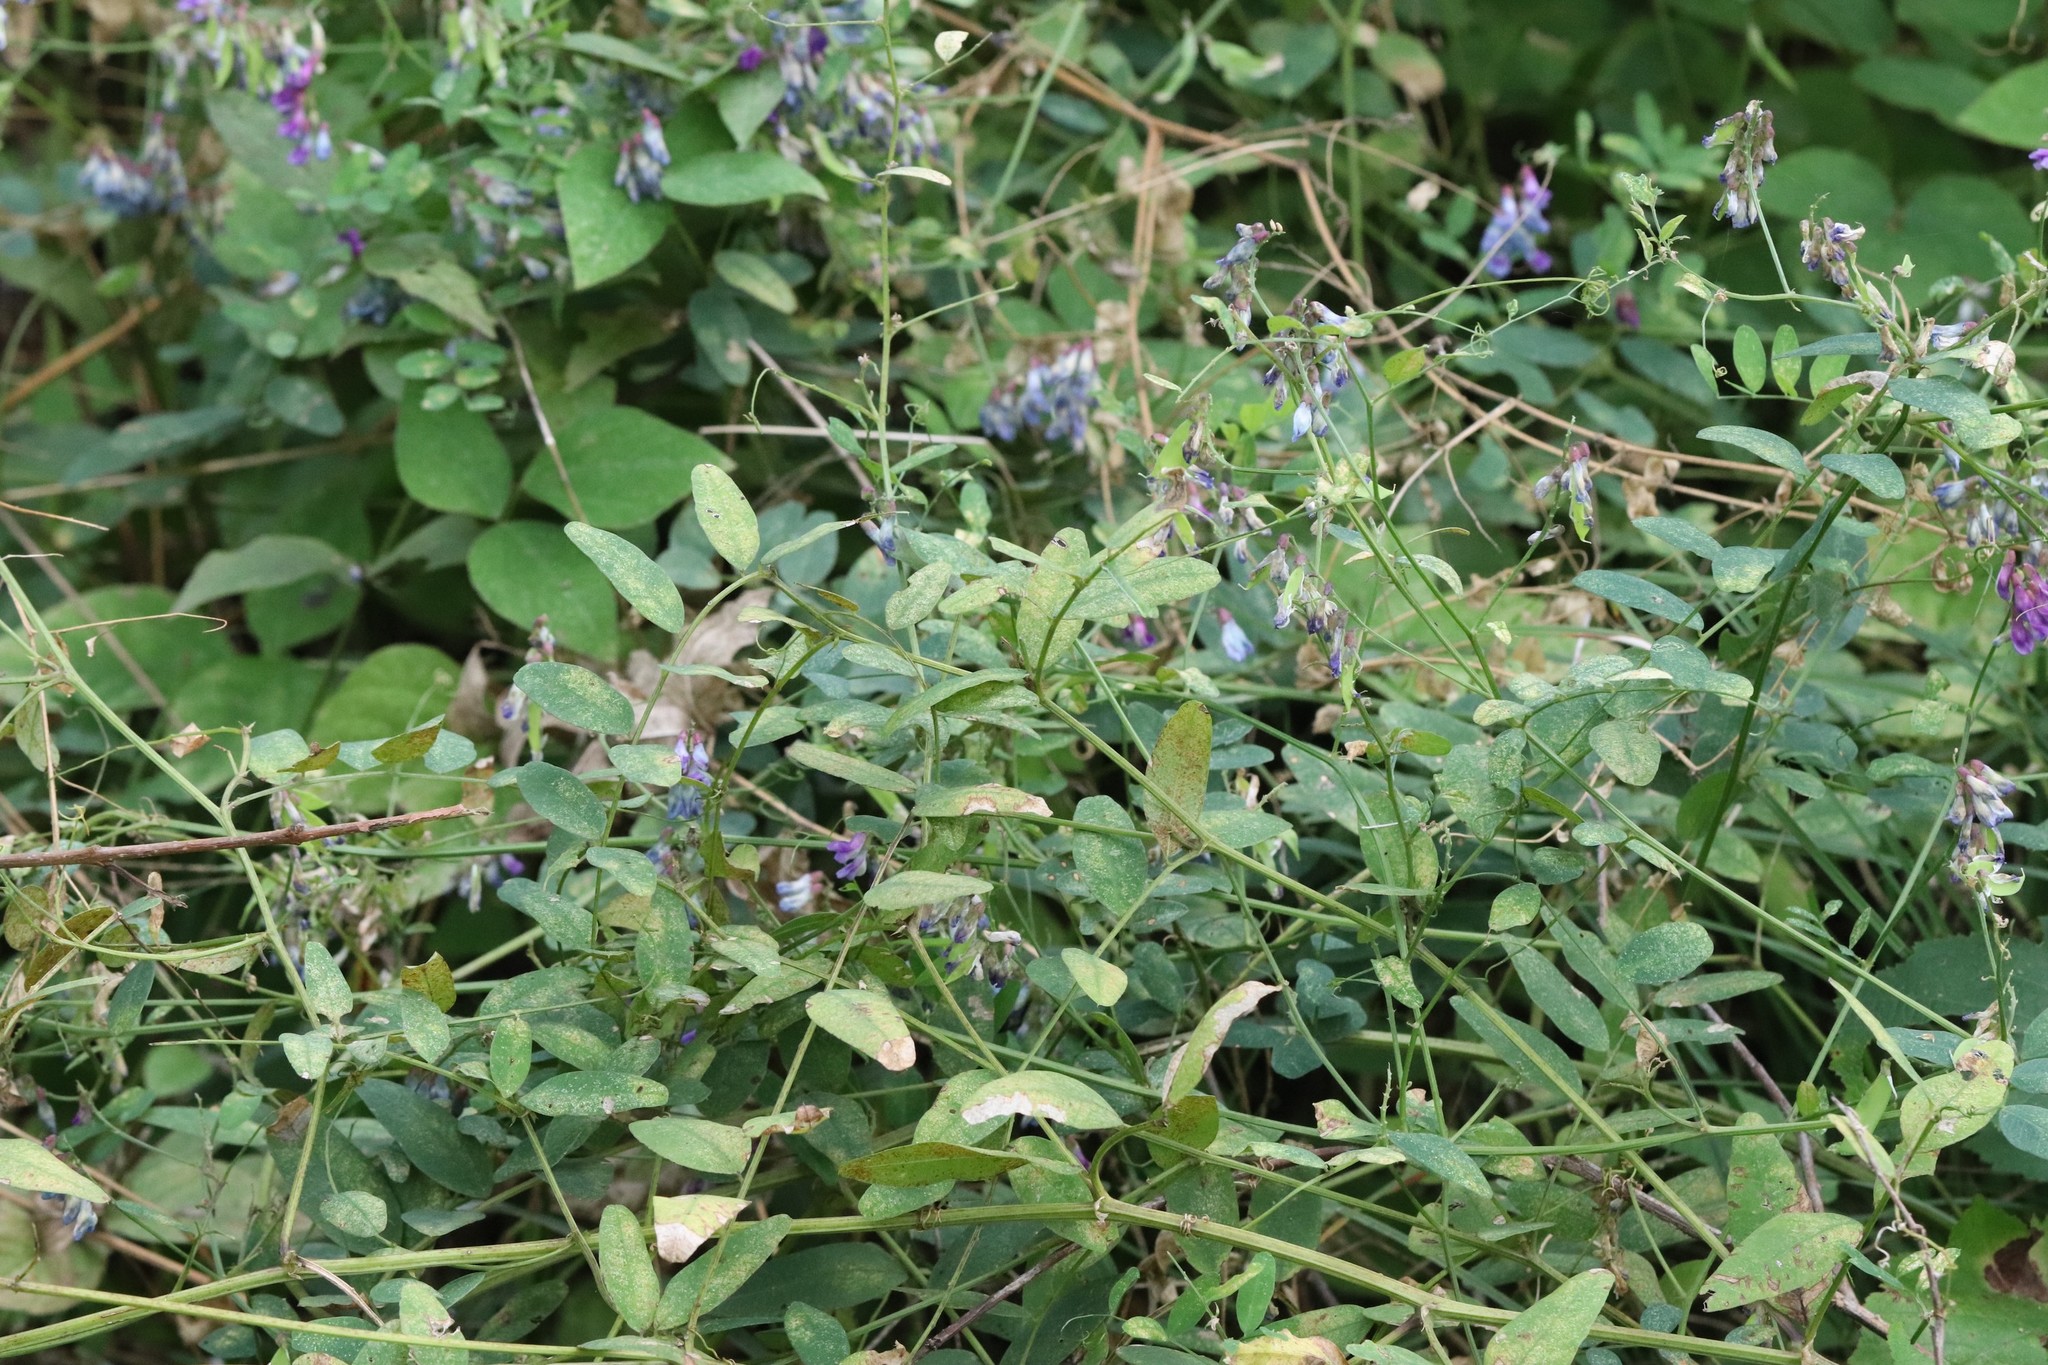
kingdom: Plantae
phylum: Tracheophyta
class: Magnoliopsida
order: Fabales
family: Fabaceae
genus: Vicia
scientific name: Vicia amurensis
